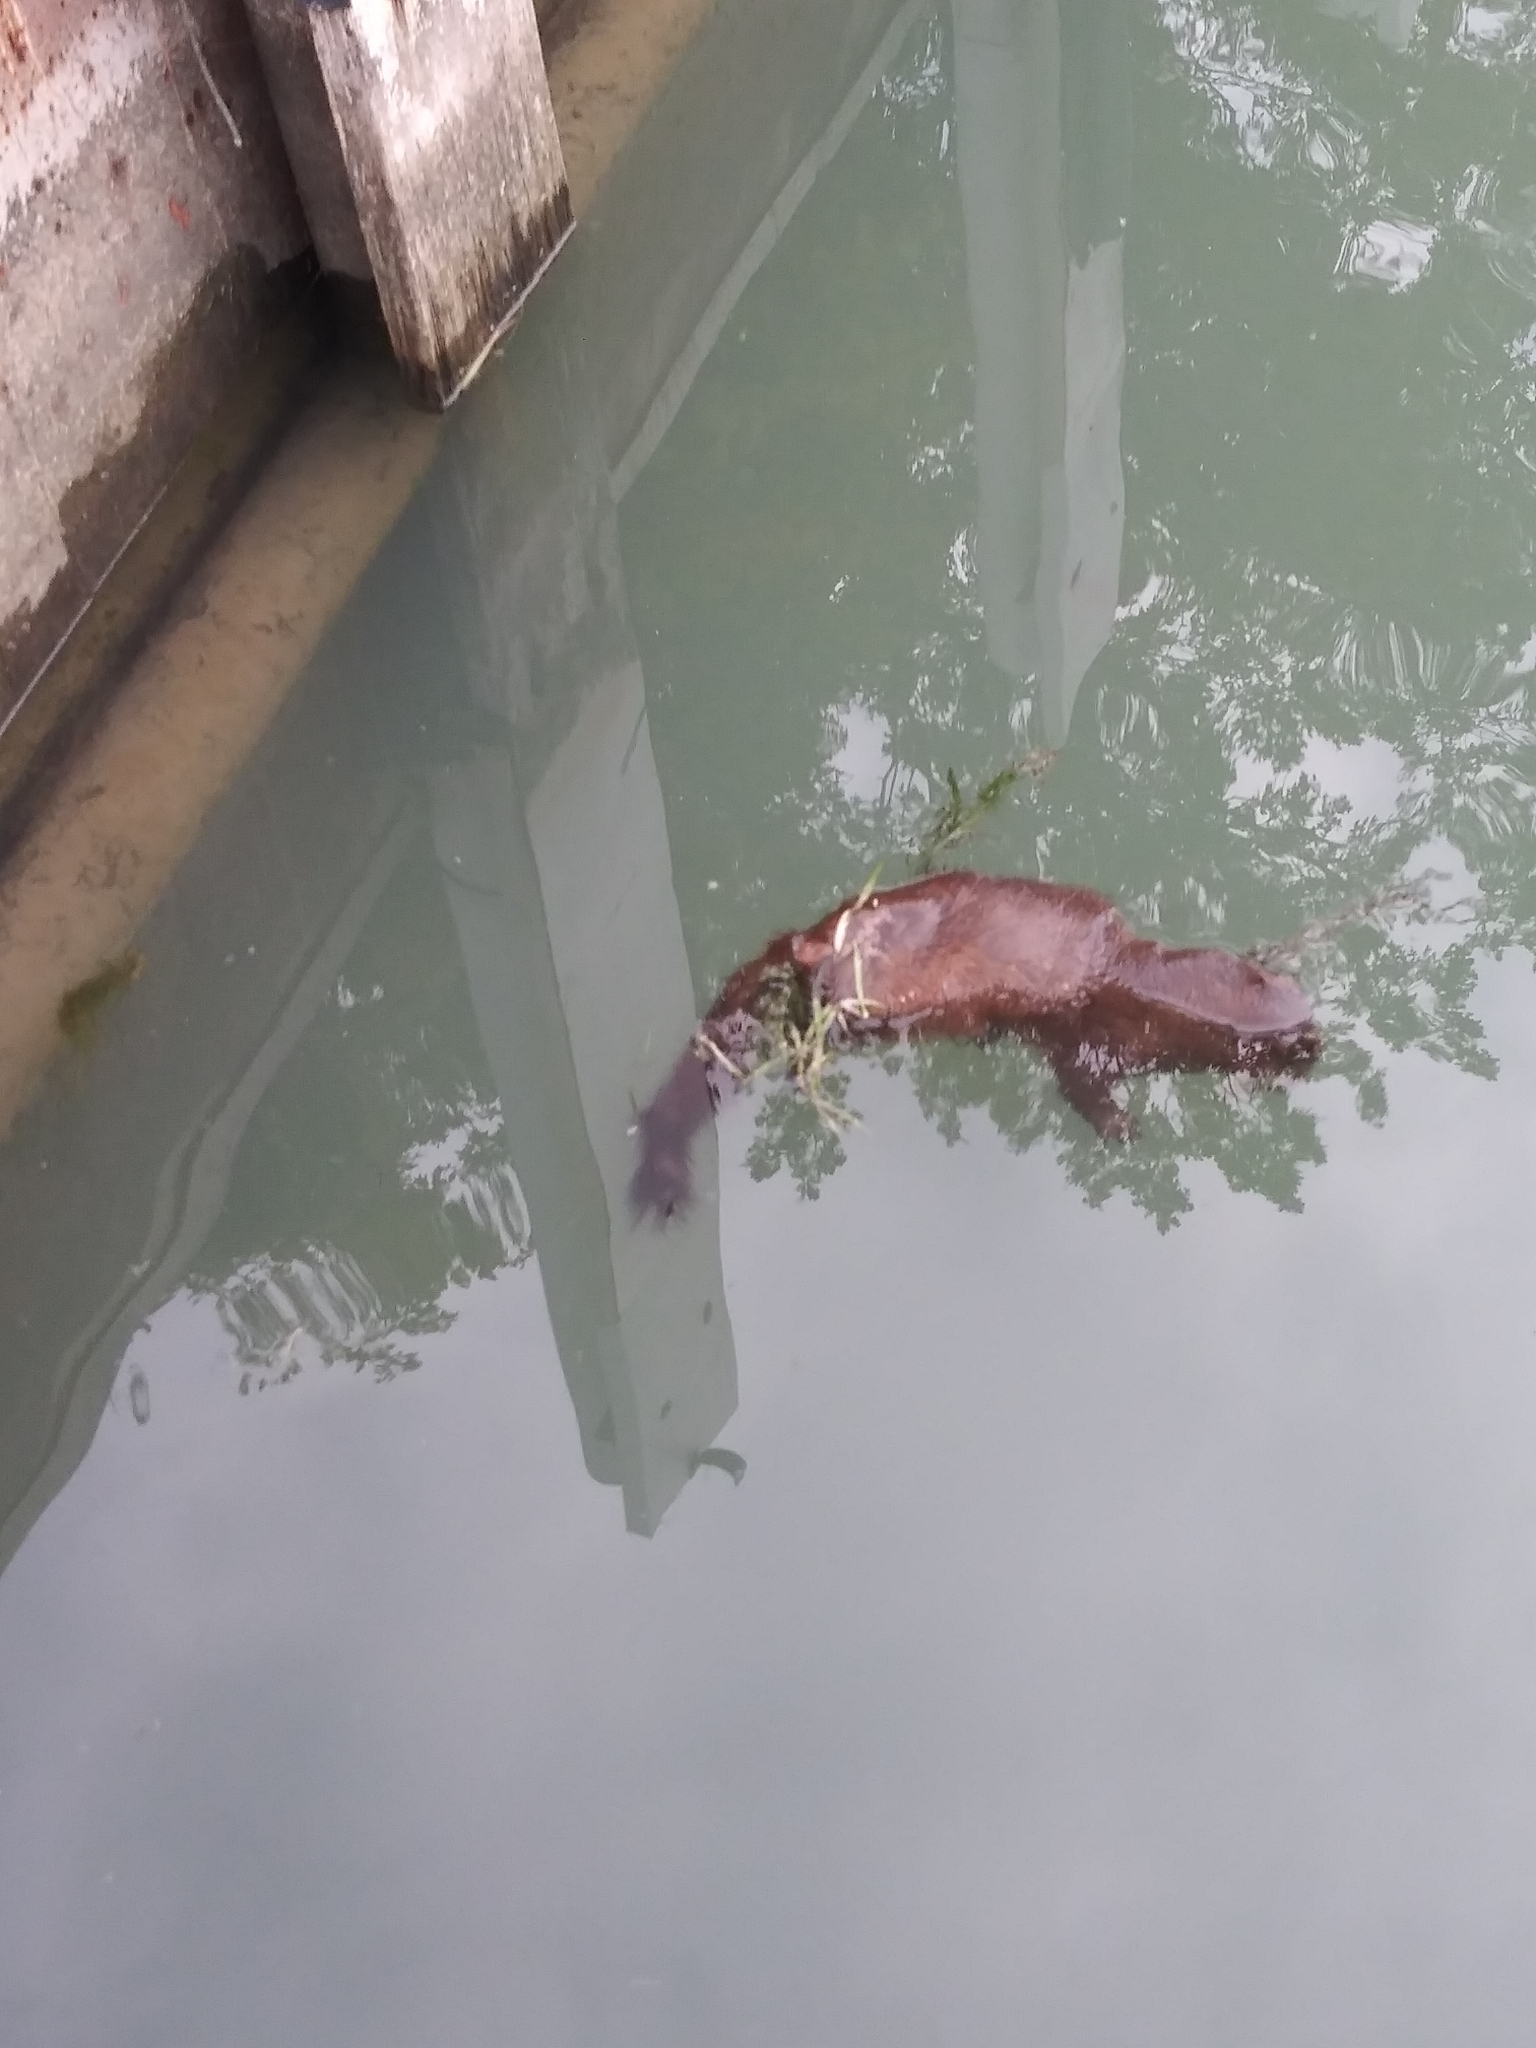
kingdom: Animalia
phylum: Chordata
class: Mammalia
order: Carnivora
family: Mustelidae
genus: Mustela
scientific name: Mustela
